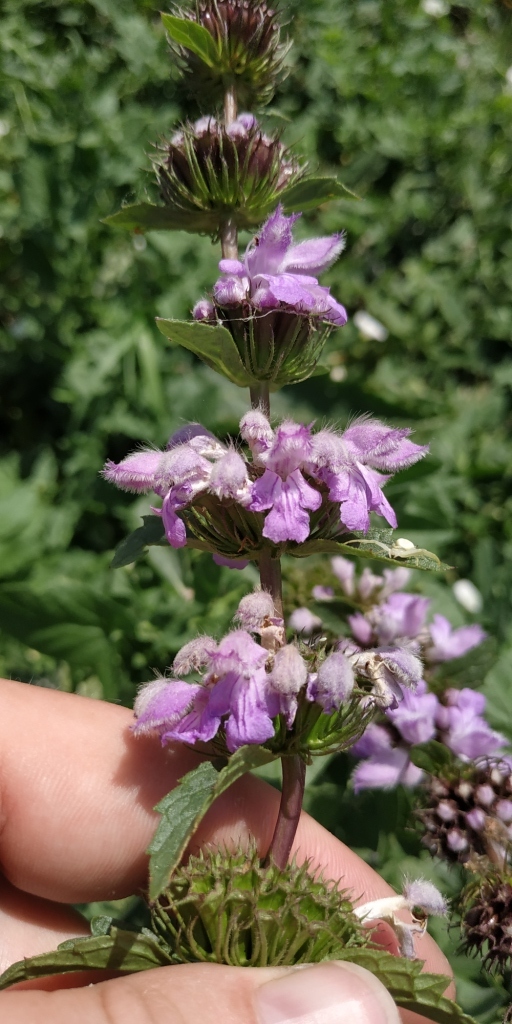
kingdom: Plantae
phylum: Tracheophyta
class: Magnoliopsida
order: Lamiales
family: Lamiaceae
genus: Phlomoides
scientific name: Phlomoides tuberosa
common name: Tuberous jerusalem sage
